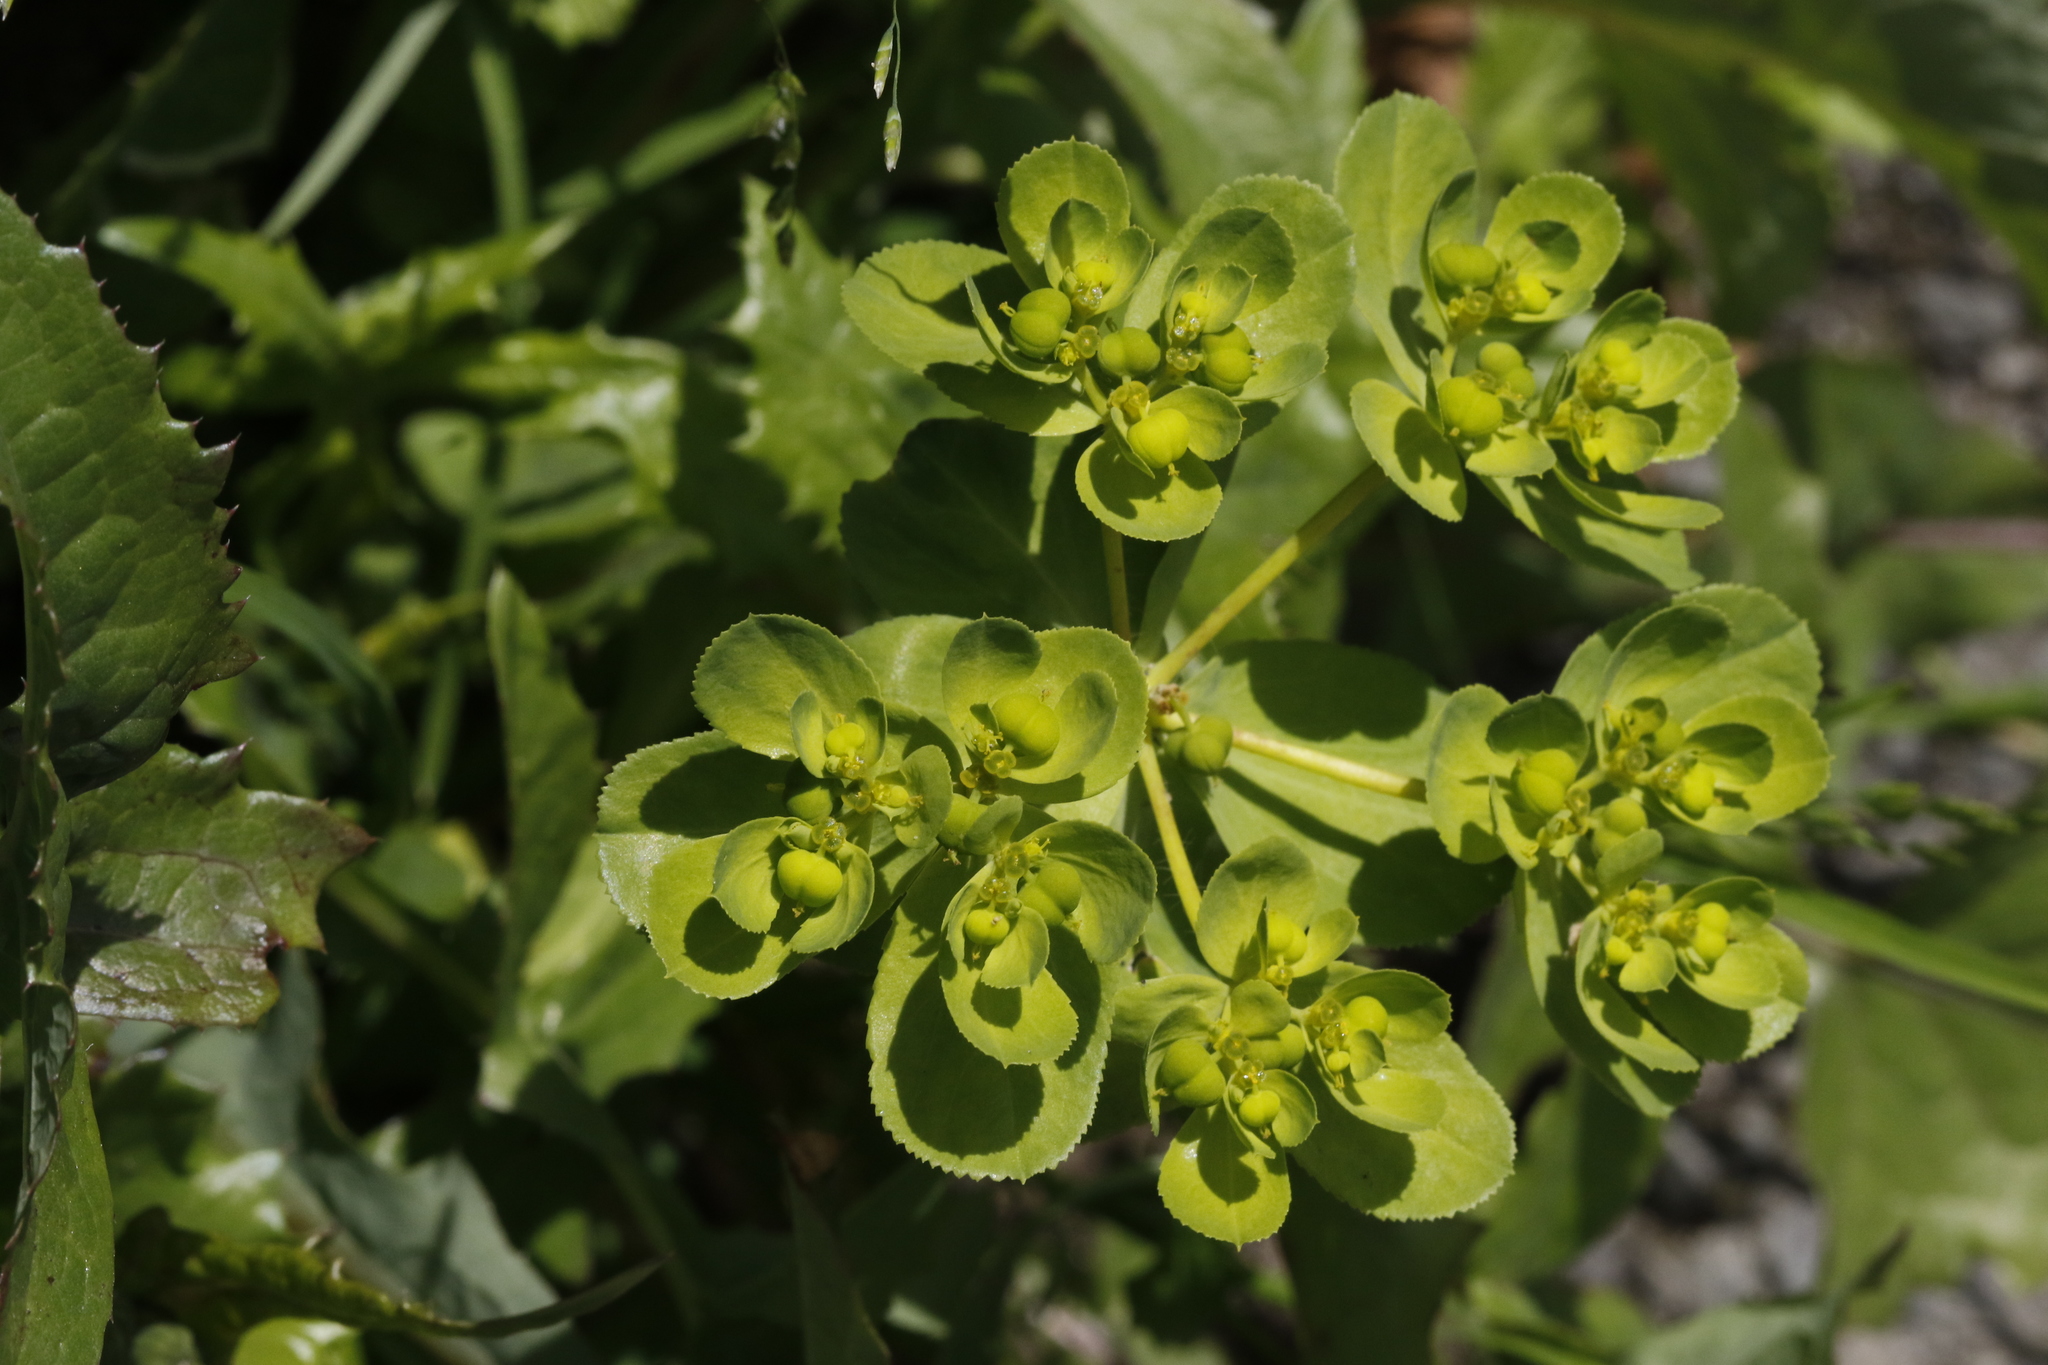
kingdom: Plantae
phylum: Tracheophyta
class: Magnoliopsida
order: Malpighiales
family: Euphorbiaceae
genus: Euphorbia
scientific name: Euphorbia helioscopia
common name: Sun spurge
